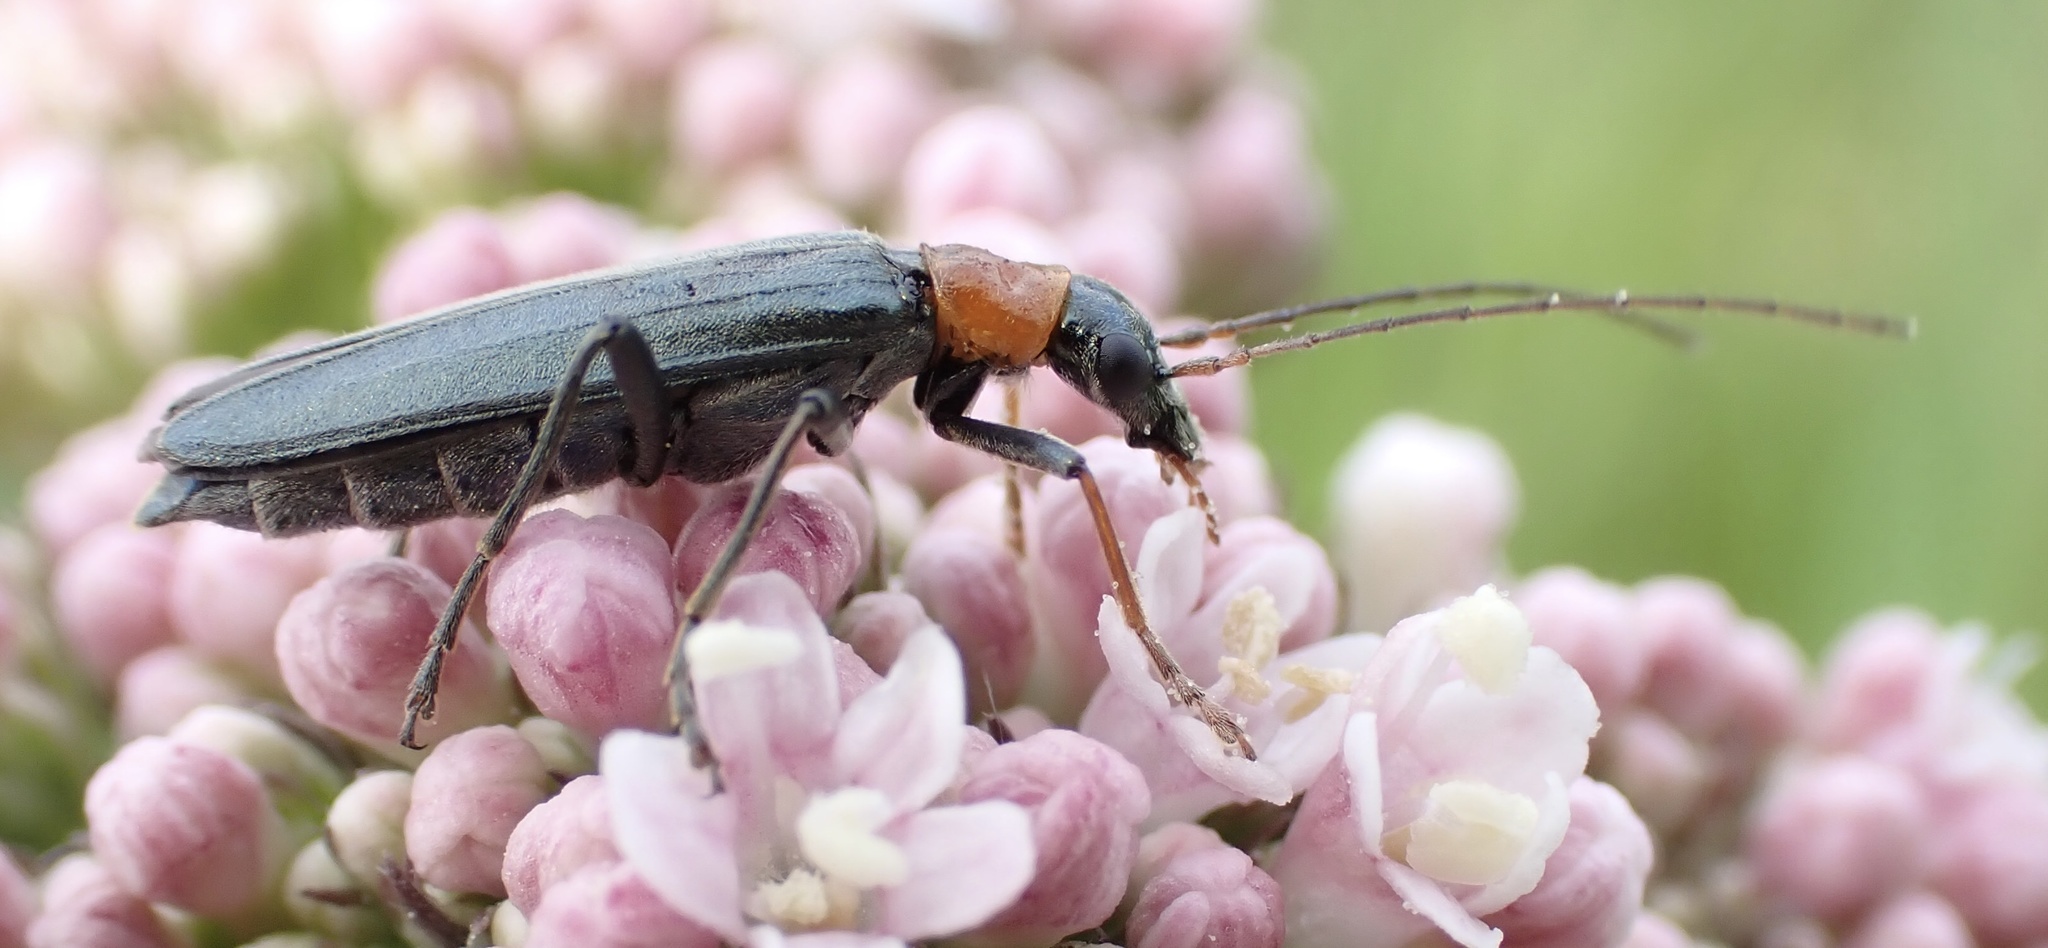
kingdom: Animalia
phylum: Arthropoda
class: Insecta
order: Coleoptera
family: Oedemeridae
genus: Oedemera
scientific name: Oedemera croceicollis
